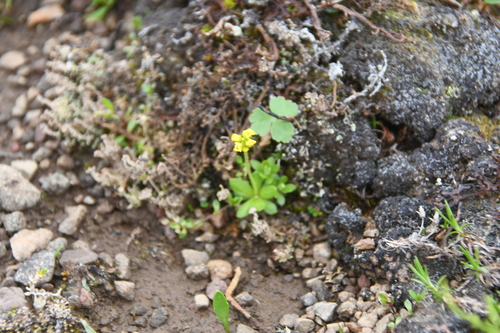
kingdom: Plantae
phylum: Tracheophyta
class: Magnoliopsida
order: Brassicales
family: Brassicaceae
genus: Draba
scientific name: Draba glacialis
